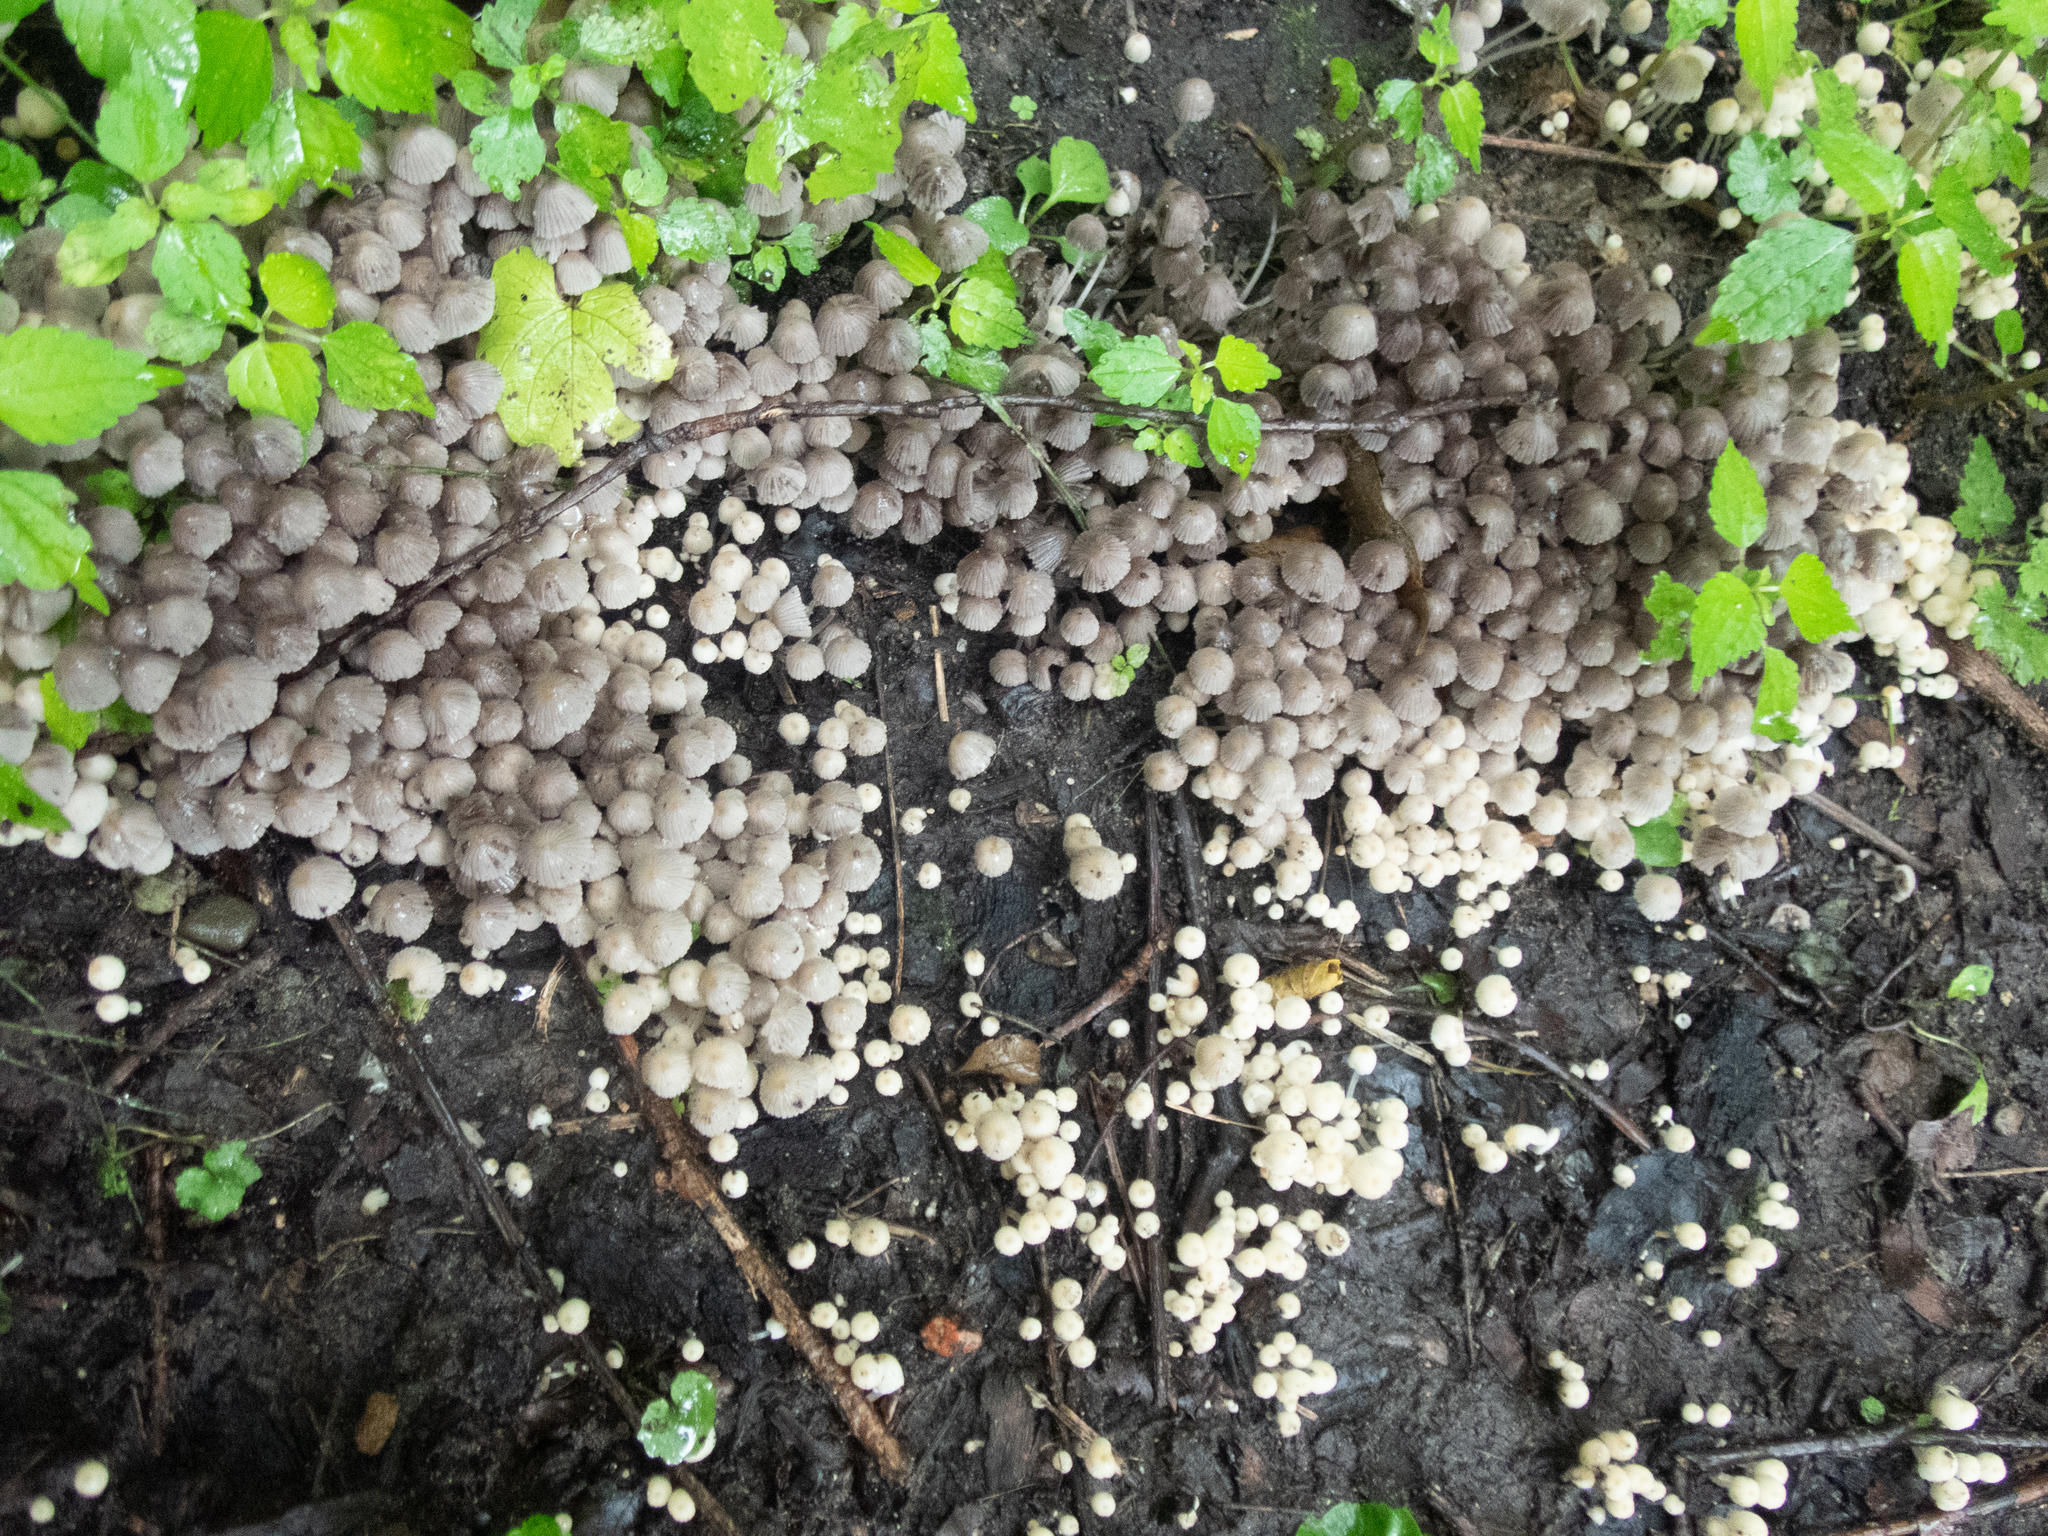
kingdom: Fungi
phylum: Basidiomycota
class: Agaricomycetes
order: Agaricales
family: Psathyrellaceae
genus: Coprinellus
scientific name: Coprinellus disseminatus
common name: Fairies' bonnets
